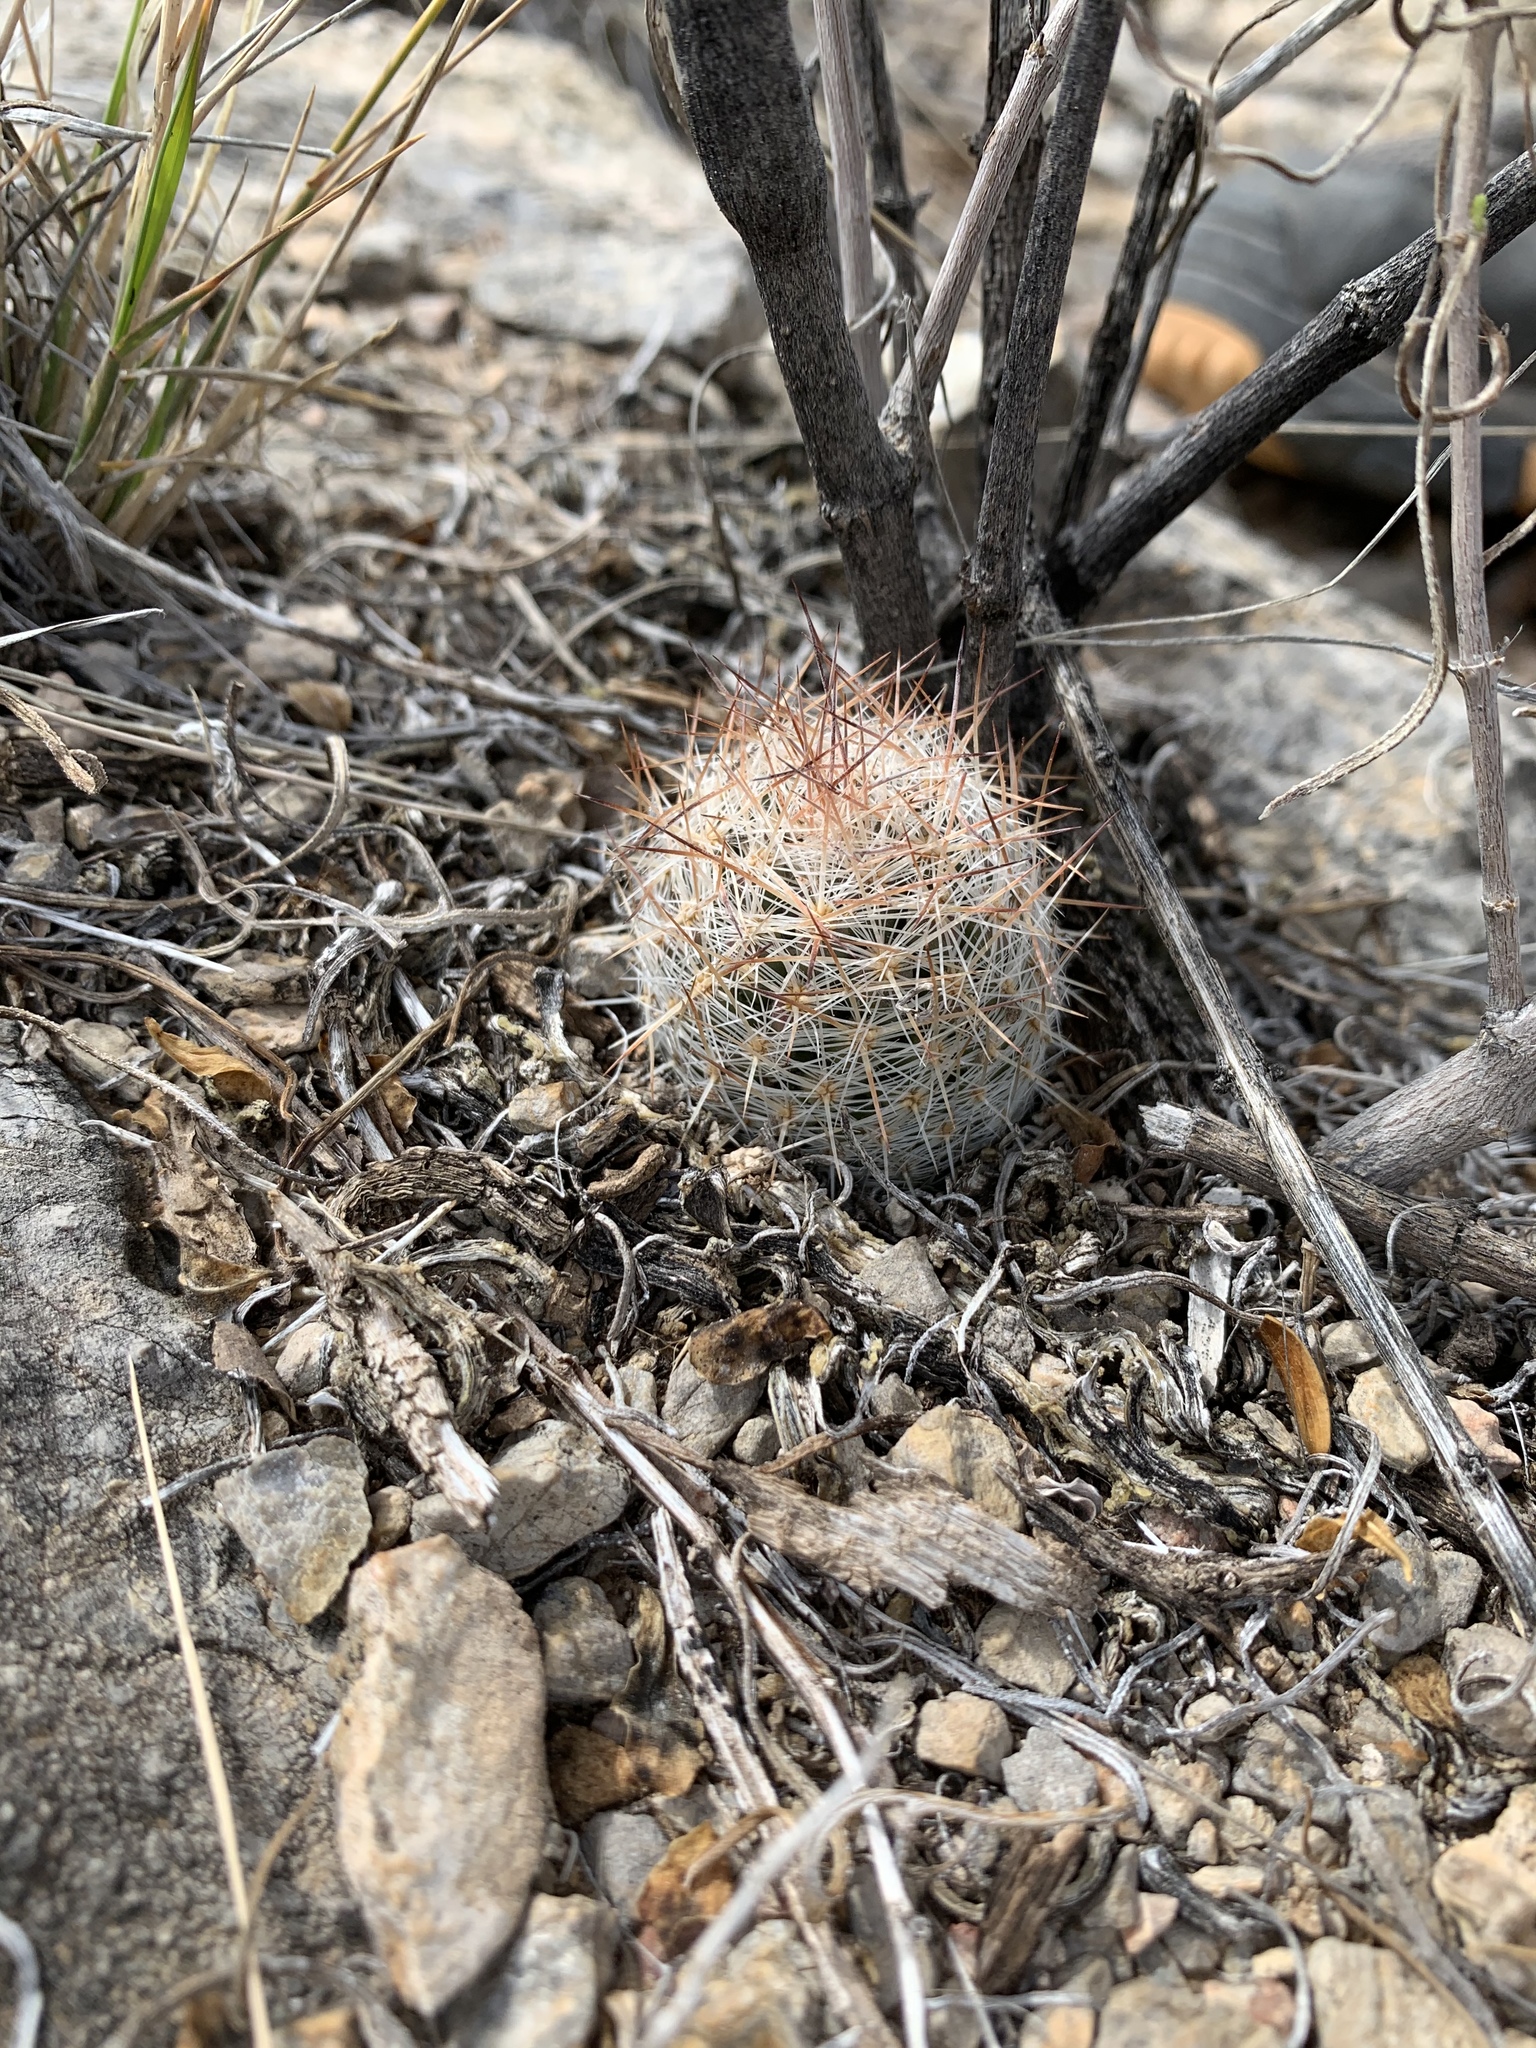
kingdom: Plantae
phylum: Tracheophyta
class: Magnoliopsida
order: Caryophyllales
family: Cactaceae
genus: Pelecyphora
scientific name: Pelecyphora tuberculosa
